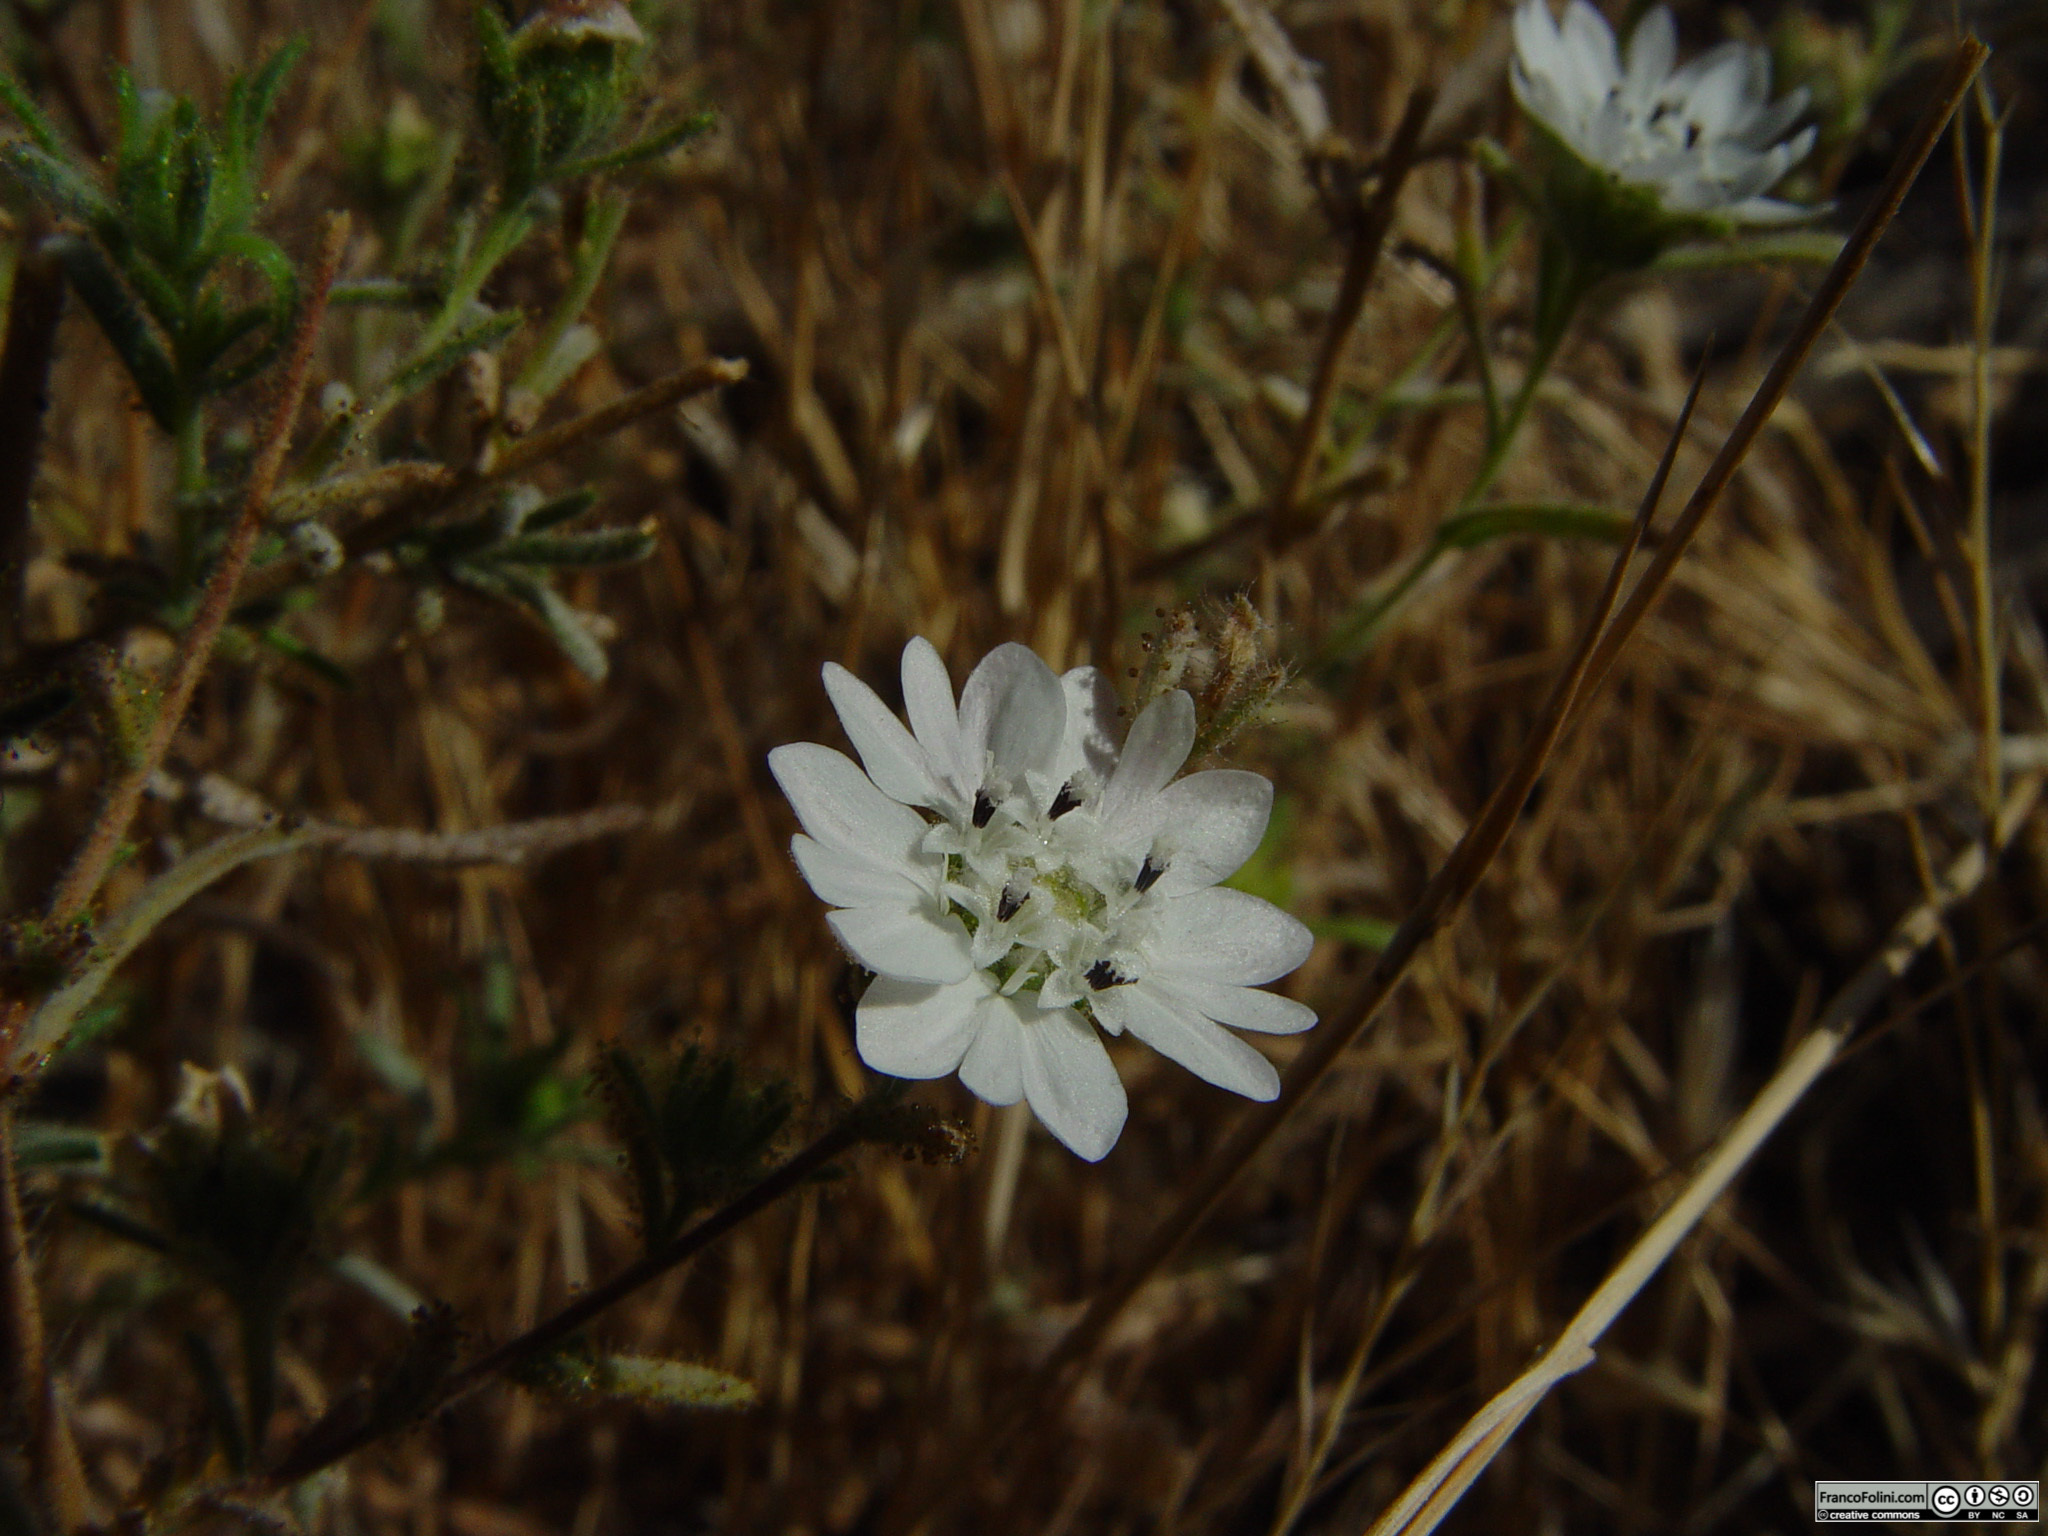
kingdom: Plantae
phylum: Tracheophyta
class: Magnoliopsida
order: Asterales
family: Asteraceae
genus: Hemizonia
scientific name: Hemizonia congesta
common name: Hayfield tarweed
